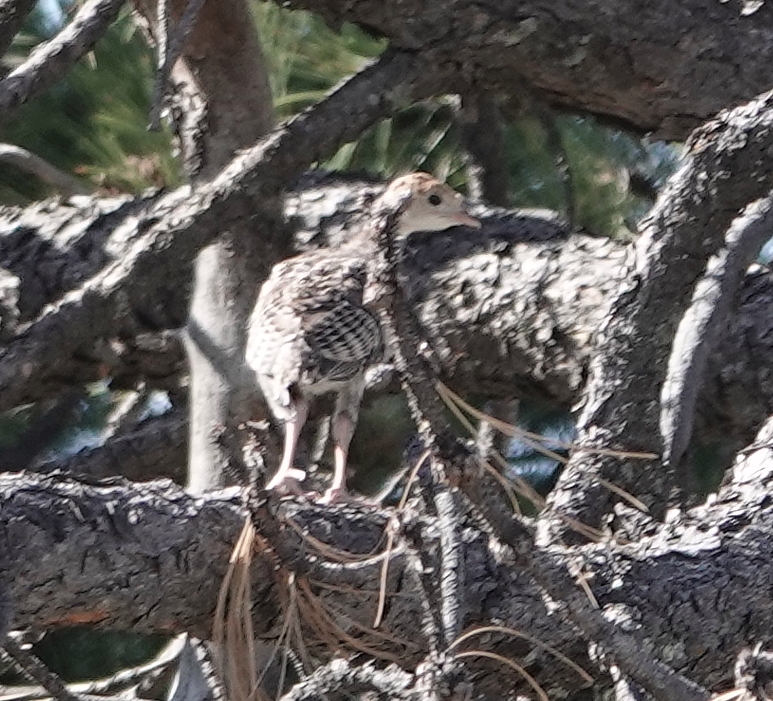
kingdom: Animalia
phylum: Chordata
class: Aves
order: Galliformes
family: Phasianidae
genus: Meleagris
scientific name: Meleagris gallopavo
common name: Wild turkey
